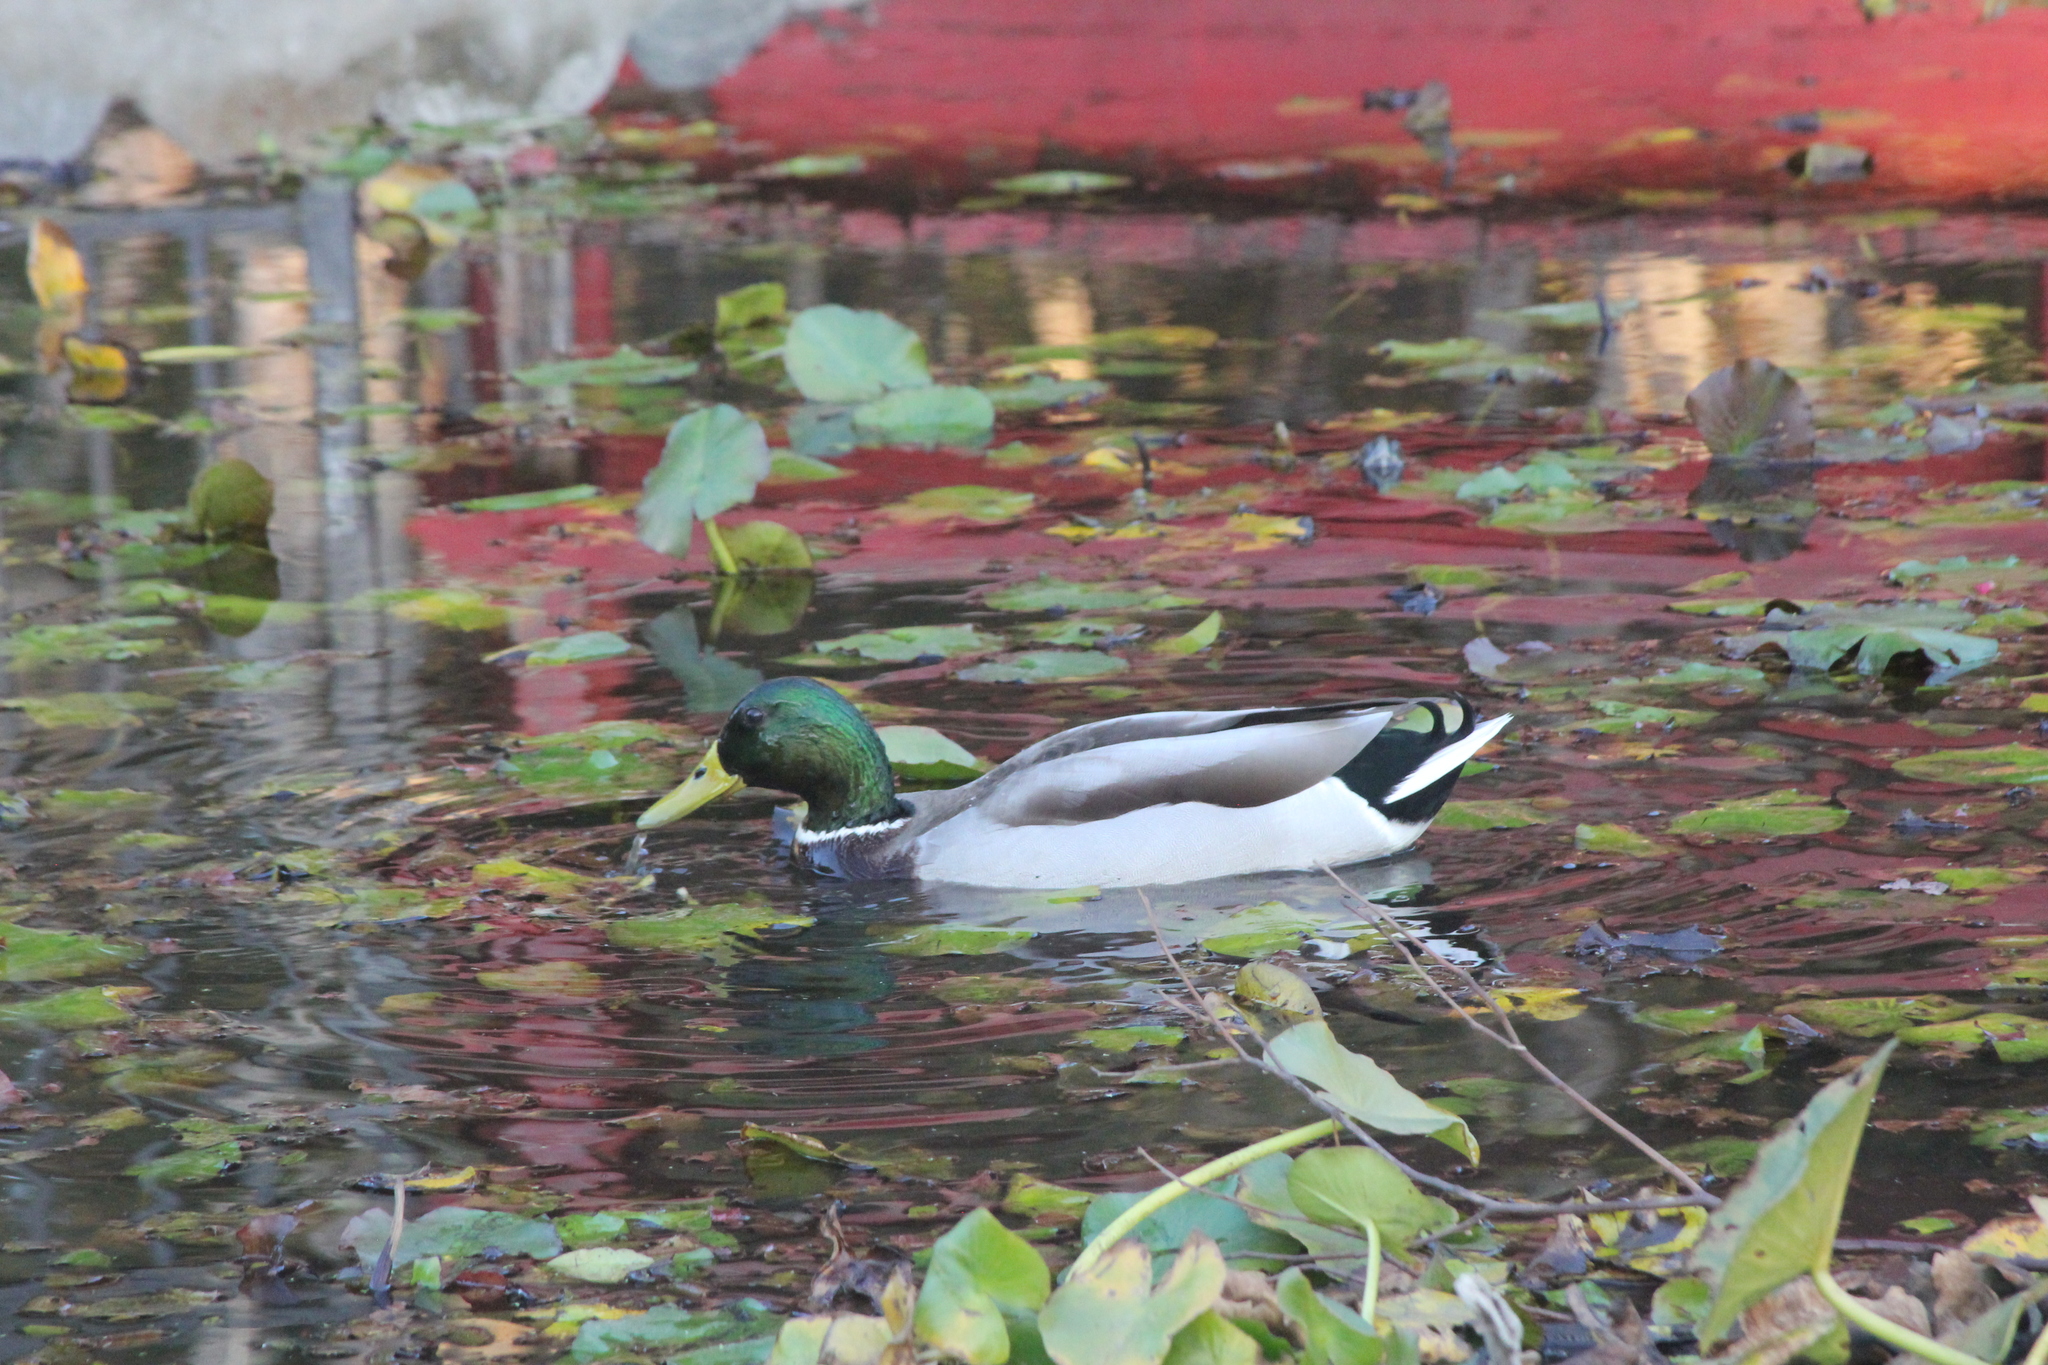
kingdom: Animalia
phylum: Chordata
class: Aves
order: Anseriformes
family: Anatidae
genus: Anas
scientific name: Anas platyrhynchos
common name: Mallard
